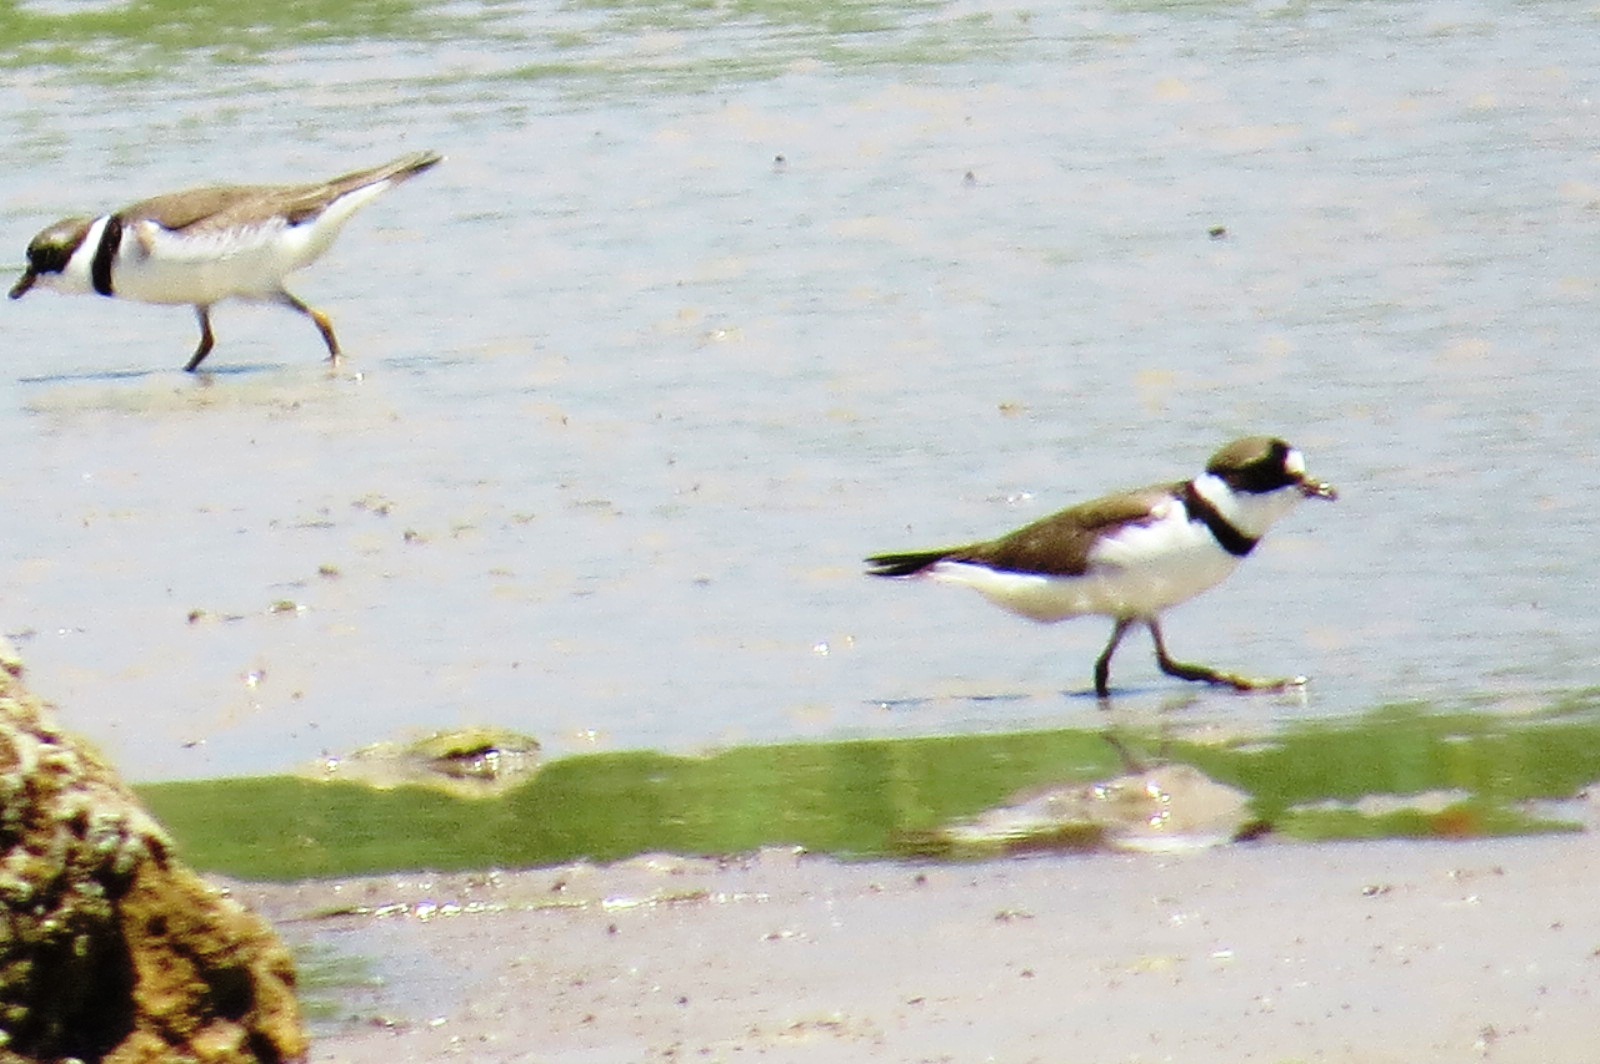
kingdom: Animalia
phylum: Chordata
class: Aves
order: Charadriiformes
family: Charadriidae
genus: Charadrius
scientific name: Charadrius semipalmatus
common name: Semipalmated plover
